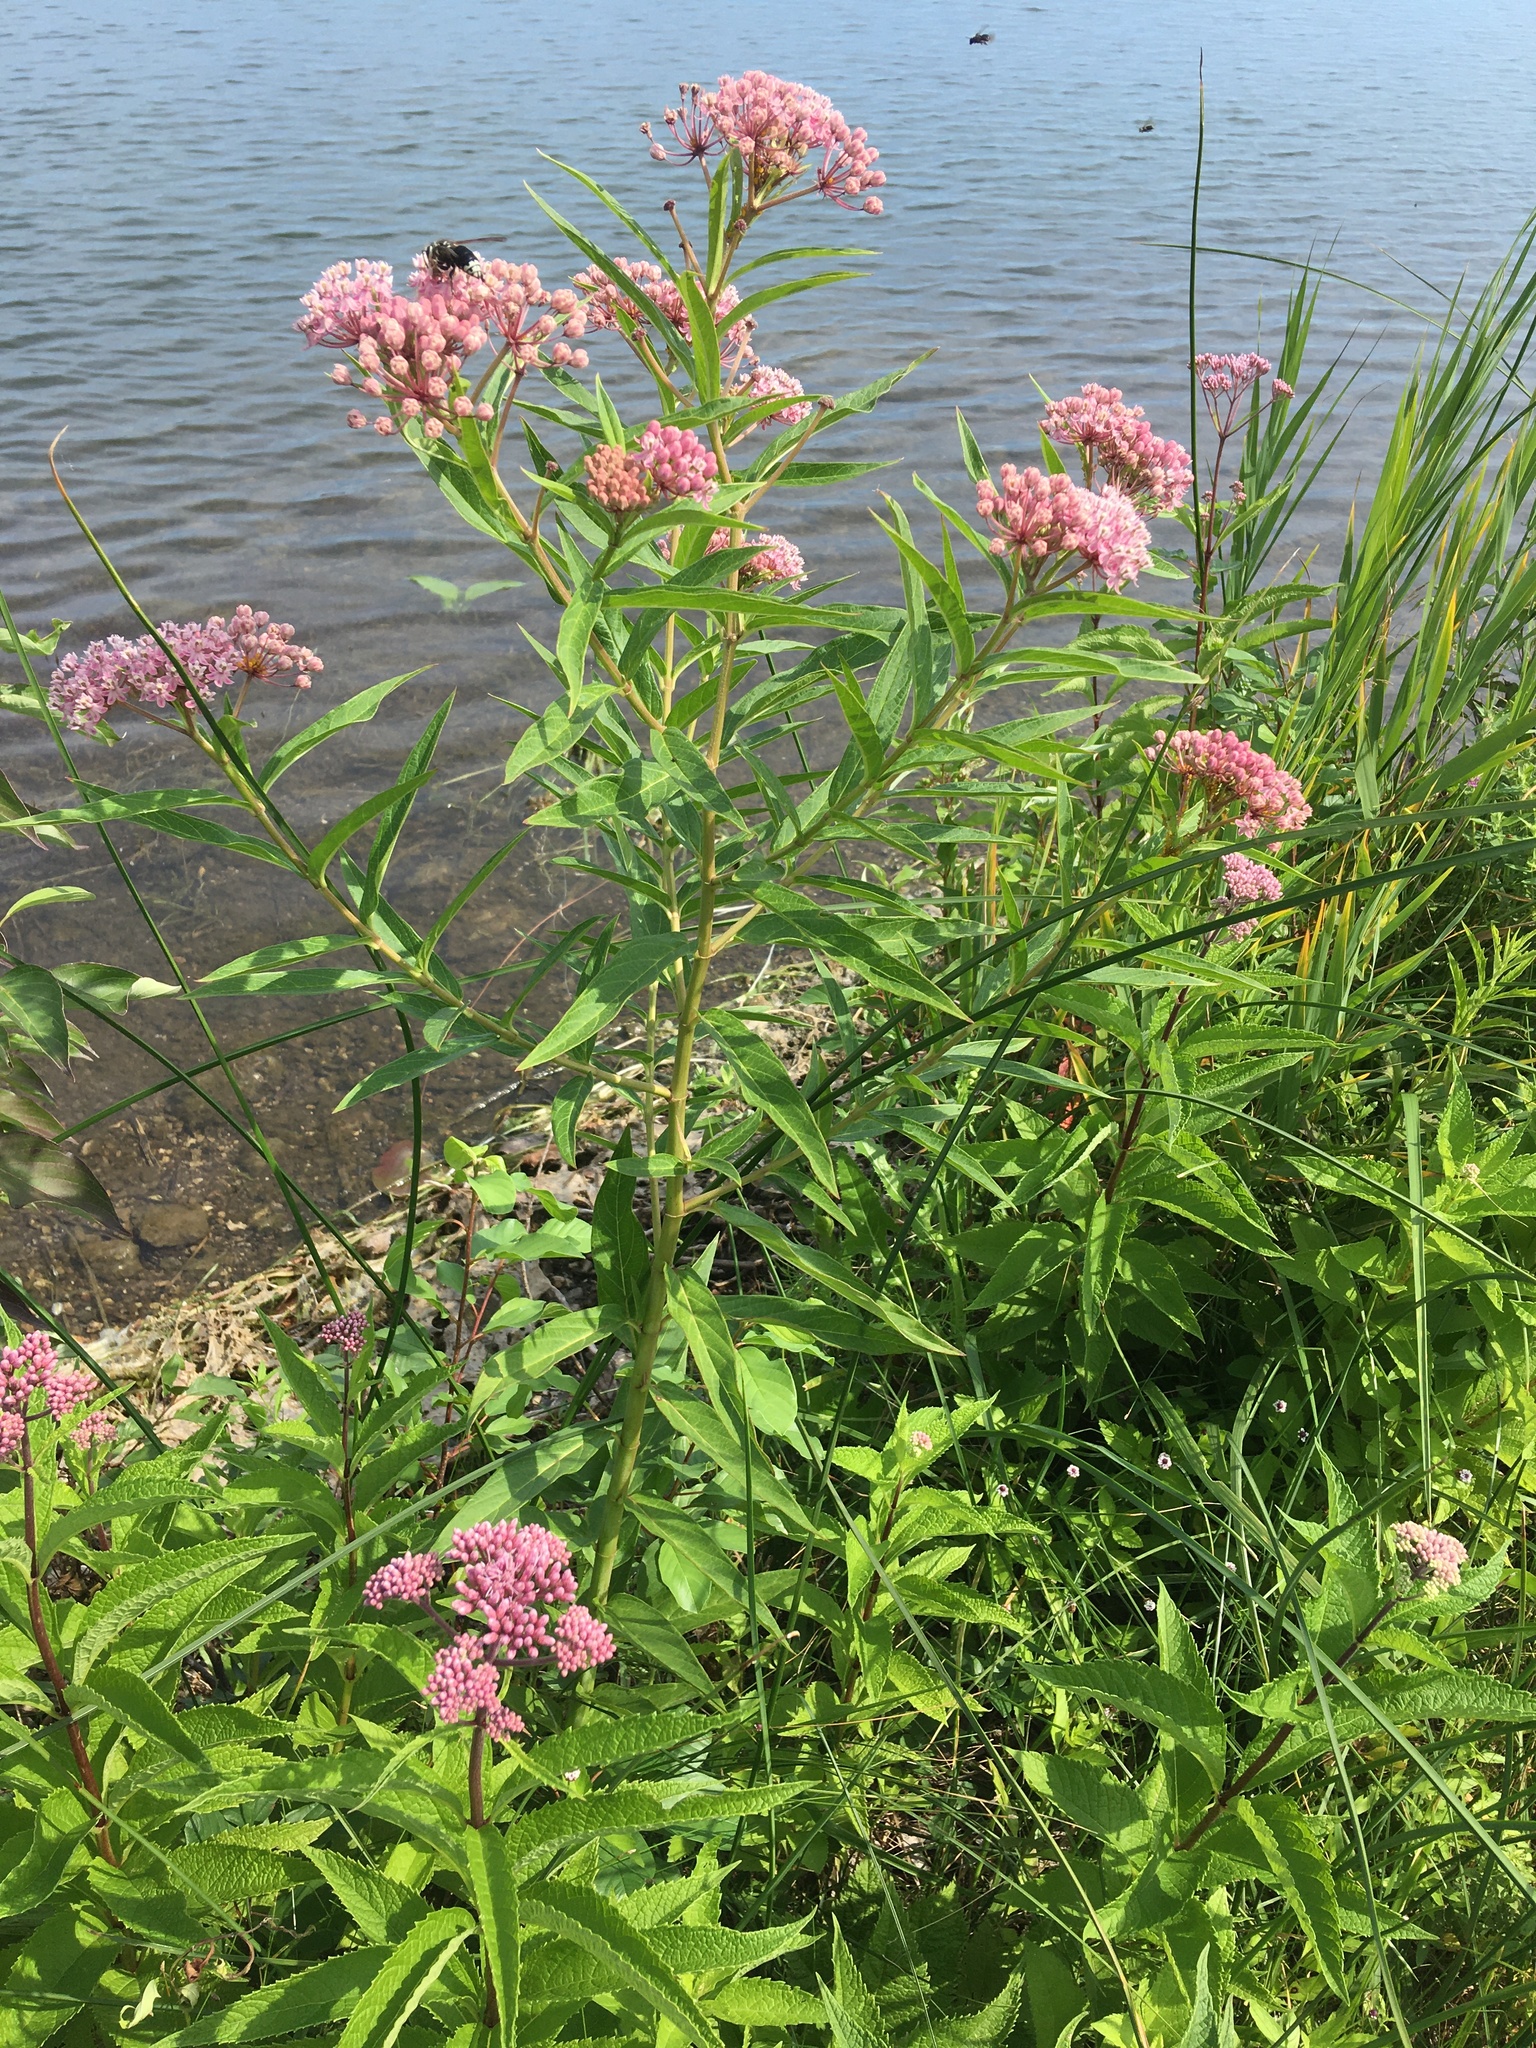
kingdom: Plantae
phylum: Tracheophyta
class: Magnoliopsida
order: Gentianales
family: Apocynaceae
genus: Asclepias
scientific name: Asclepias incarnata
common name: Swamp milkweed
